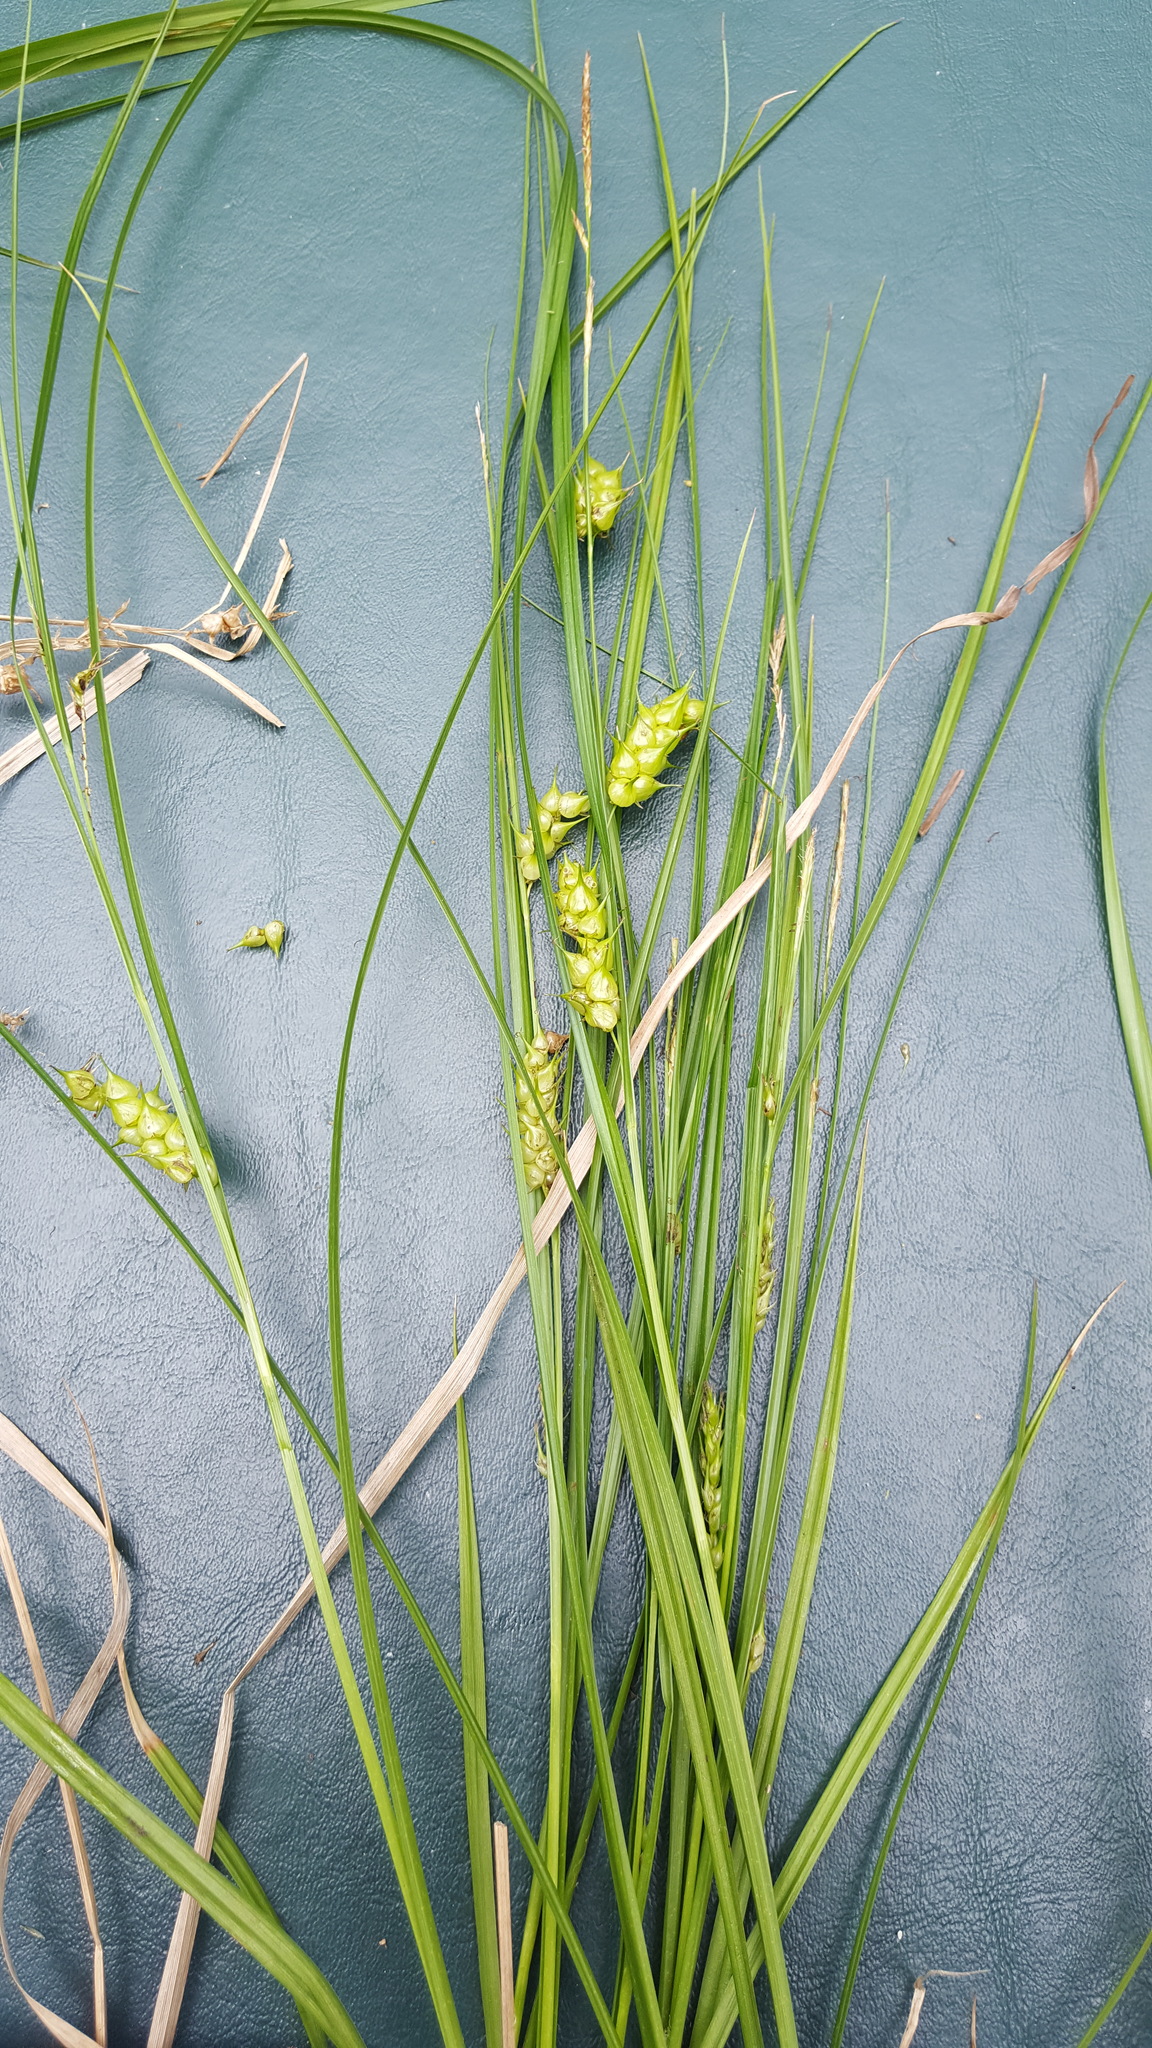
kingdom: Plantae
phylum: Tracheophyta
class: Liliopsida
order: Poales
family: Cyperaceae
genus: Carex
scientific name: Carex tuckermanii
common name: Tuckerman's sedge
